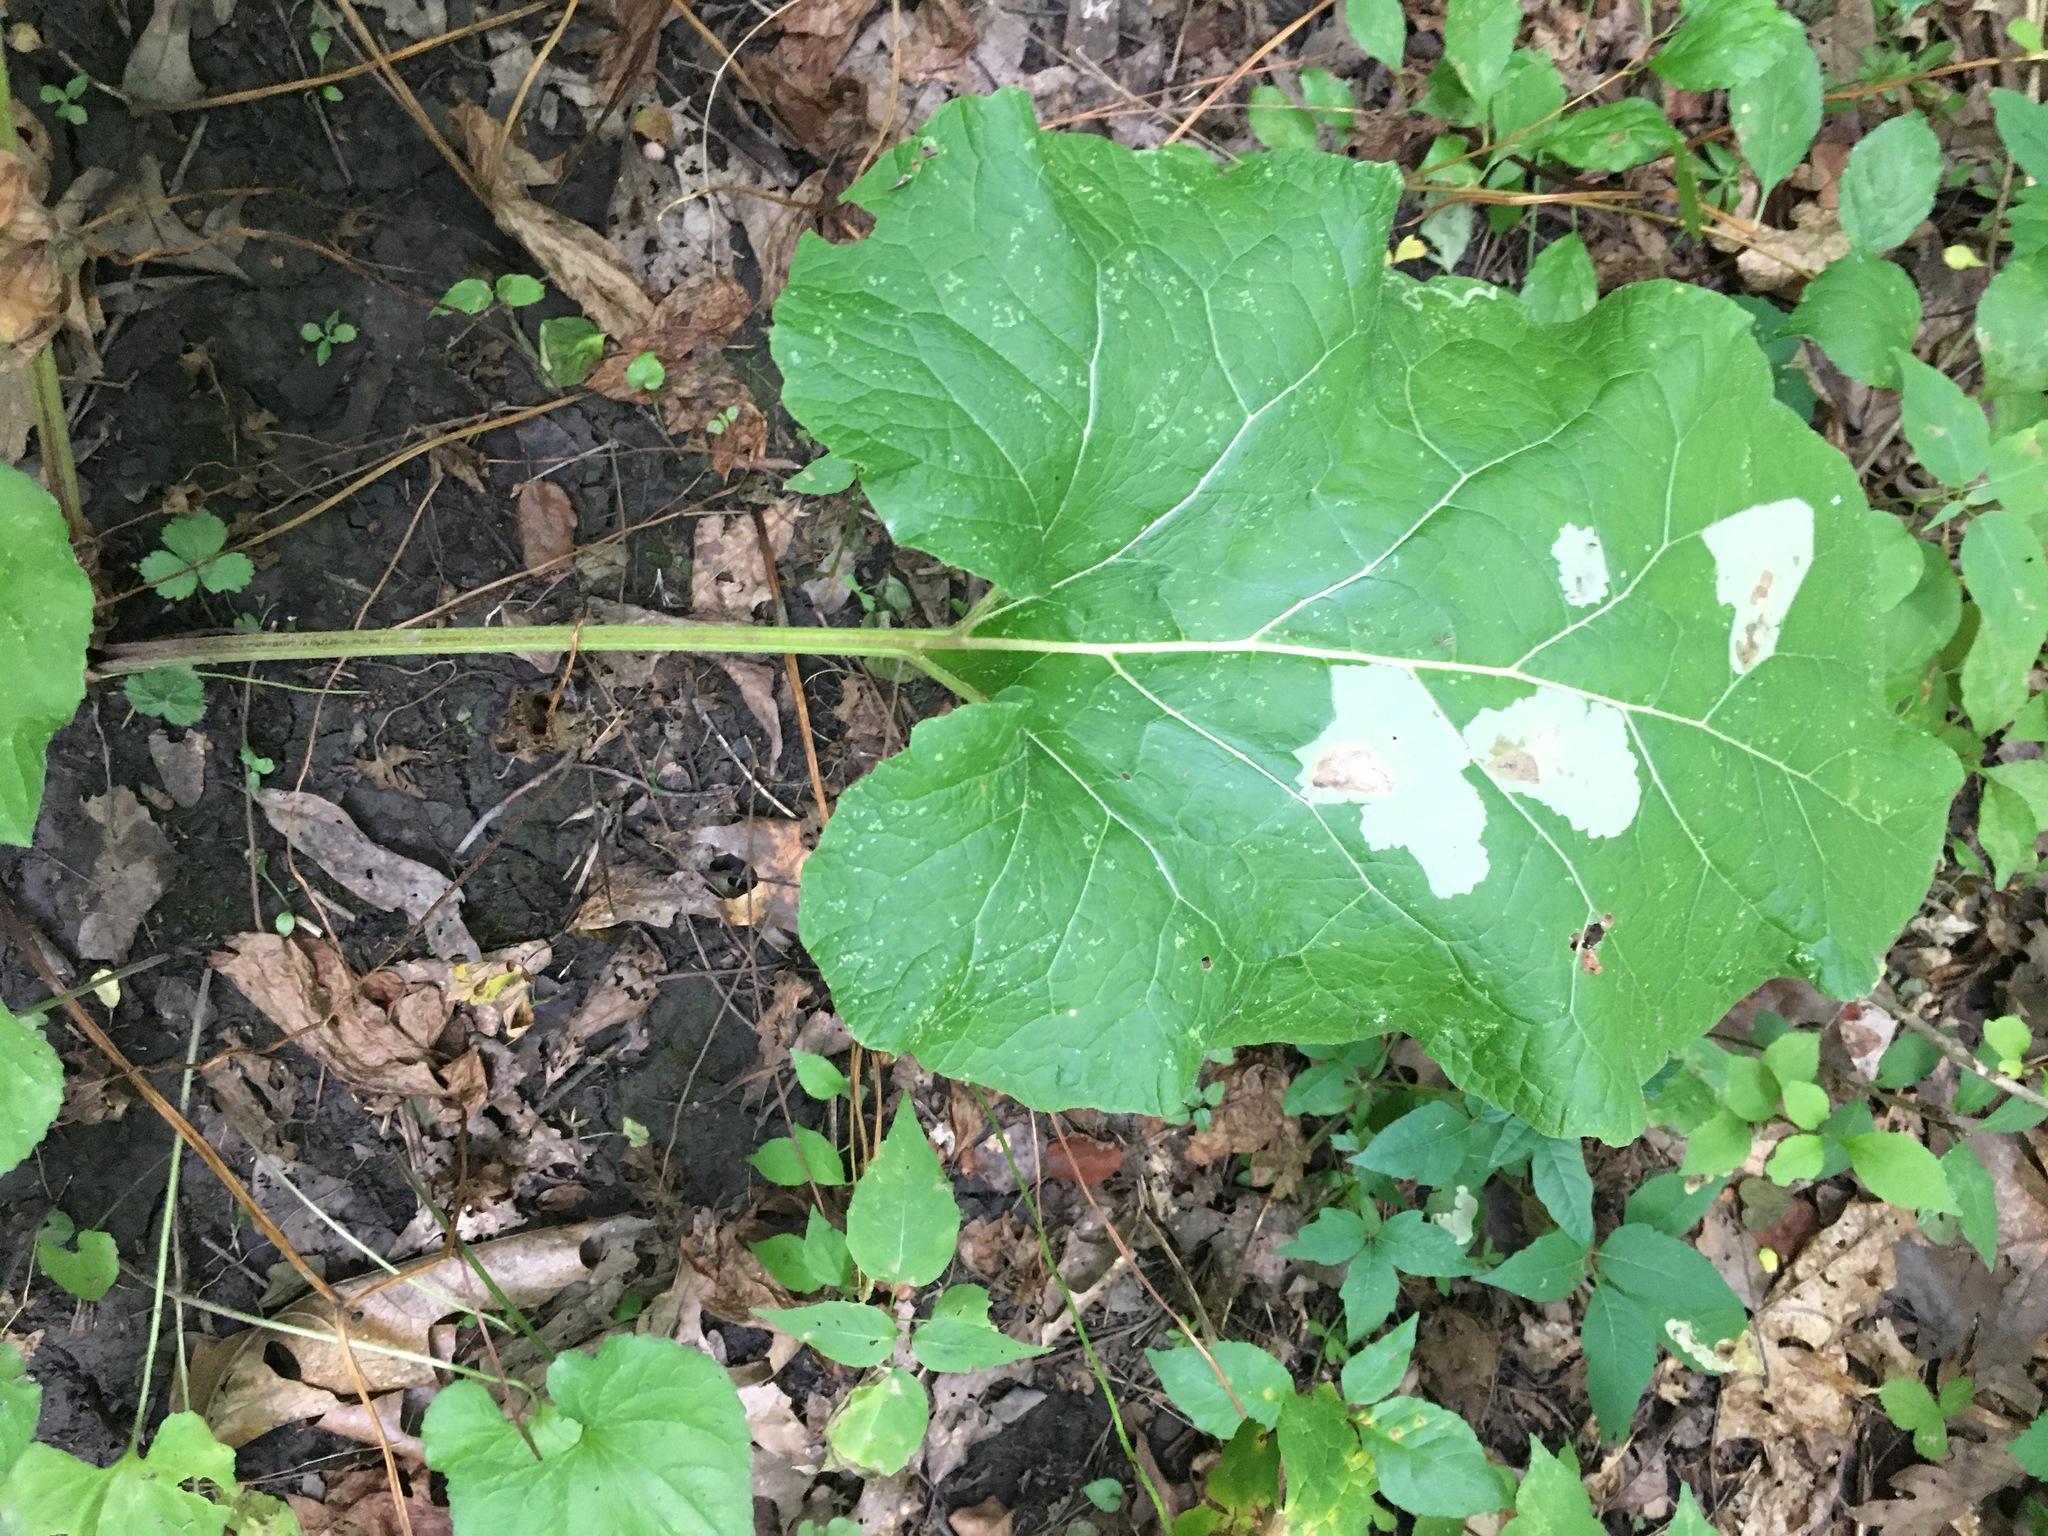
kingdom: Plantae
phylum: Tracheophyta
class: Magnoliopsida
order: Asterales
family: Asteraceae
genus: Arctium
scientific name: Arctium
